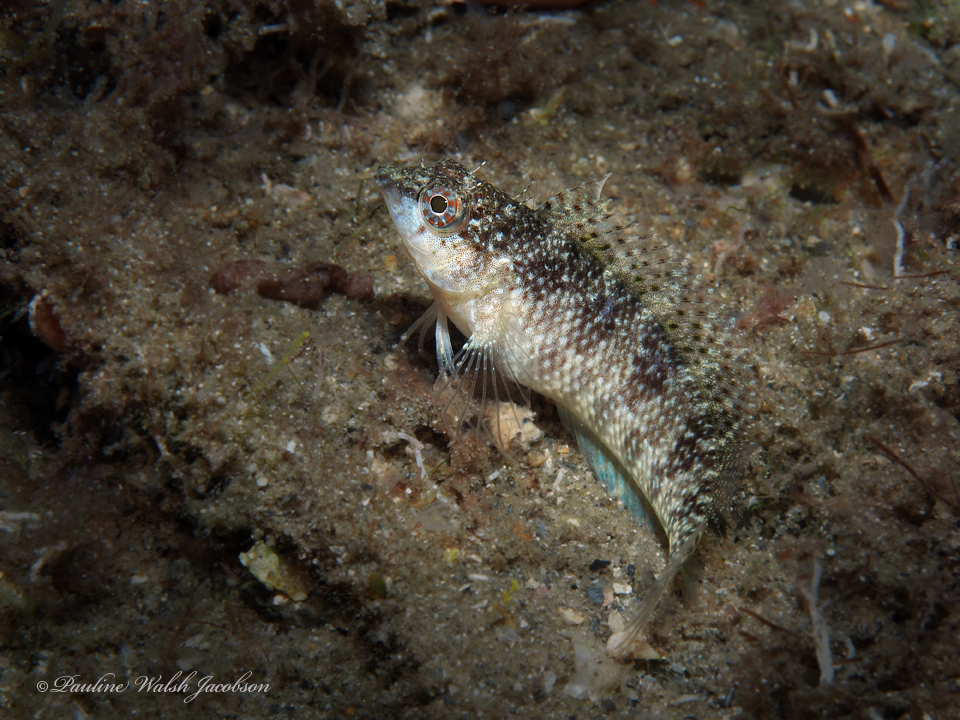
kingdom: Animalia
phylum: Chordata
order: Perciformes
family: Labrisomidae
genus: Malacoctenus
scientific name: Malacoctenus macropus
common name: Rosy blenny
